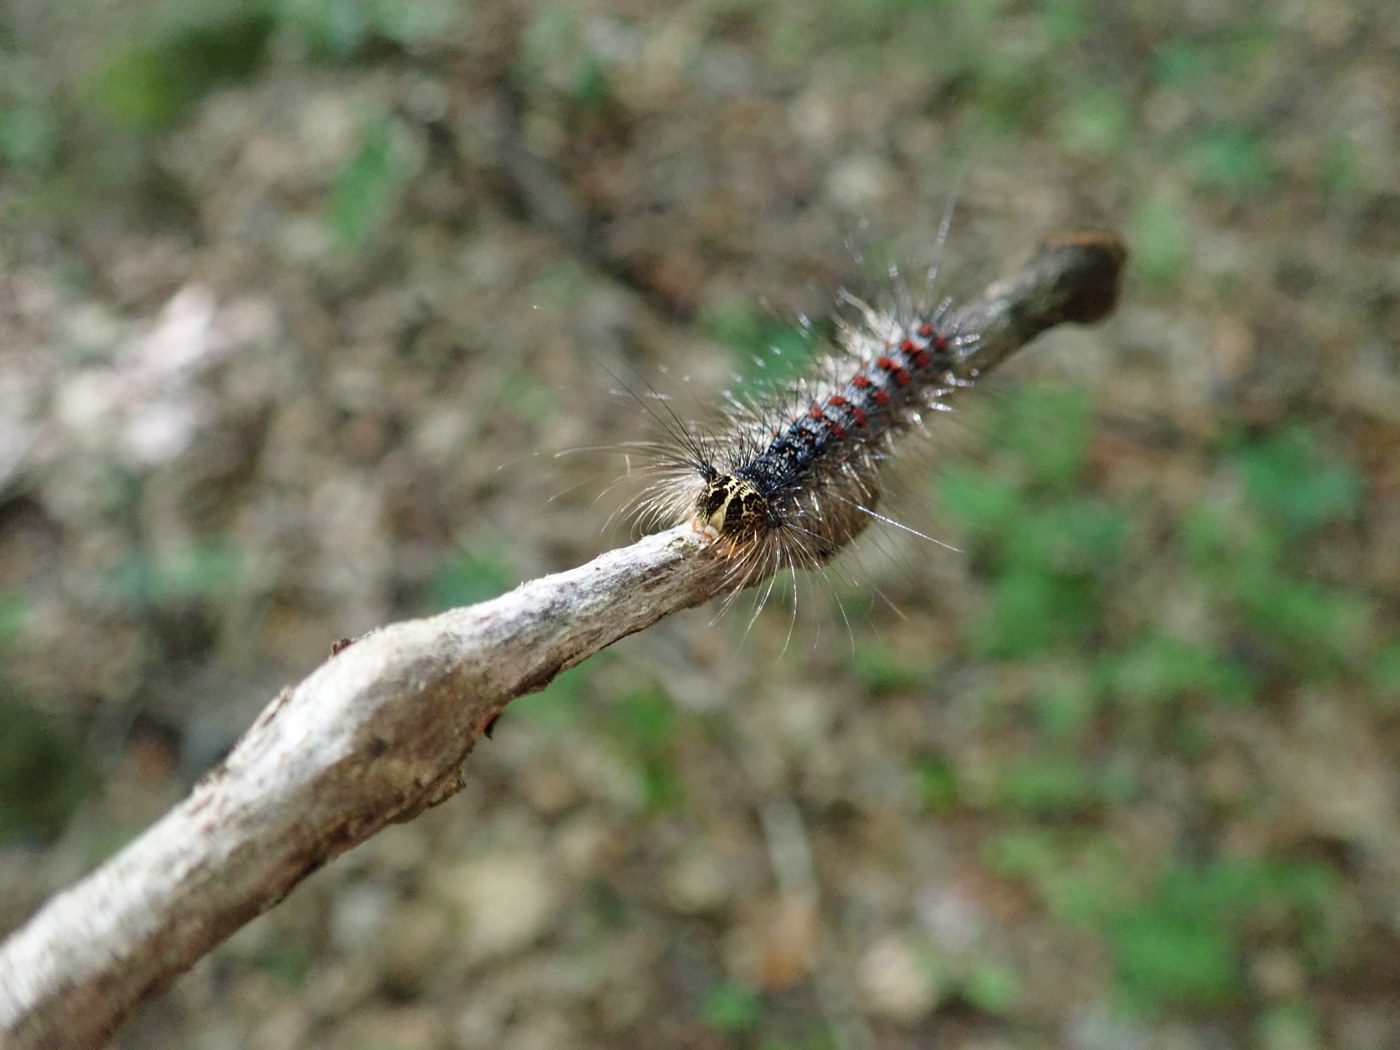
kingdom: Animalia
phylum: Arthropoda
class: Insecta
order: Lepidoptera
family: Erebidae
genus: Lymantria
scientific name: Lymantria dispar
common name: Gypsy moth
